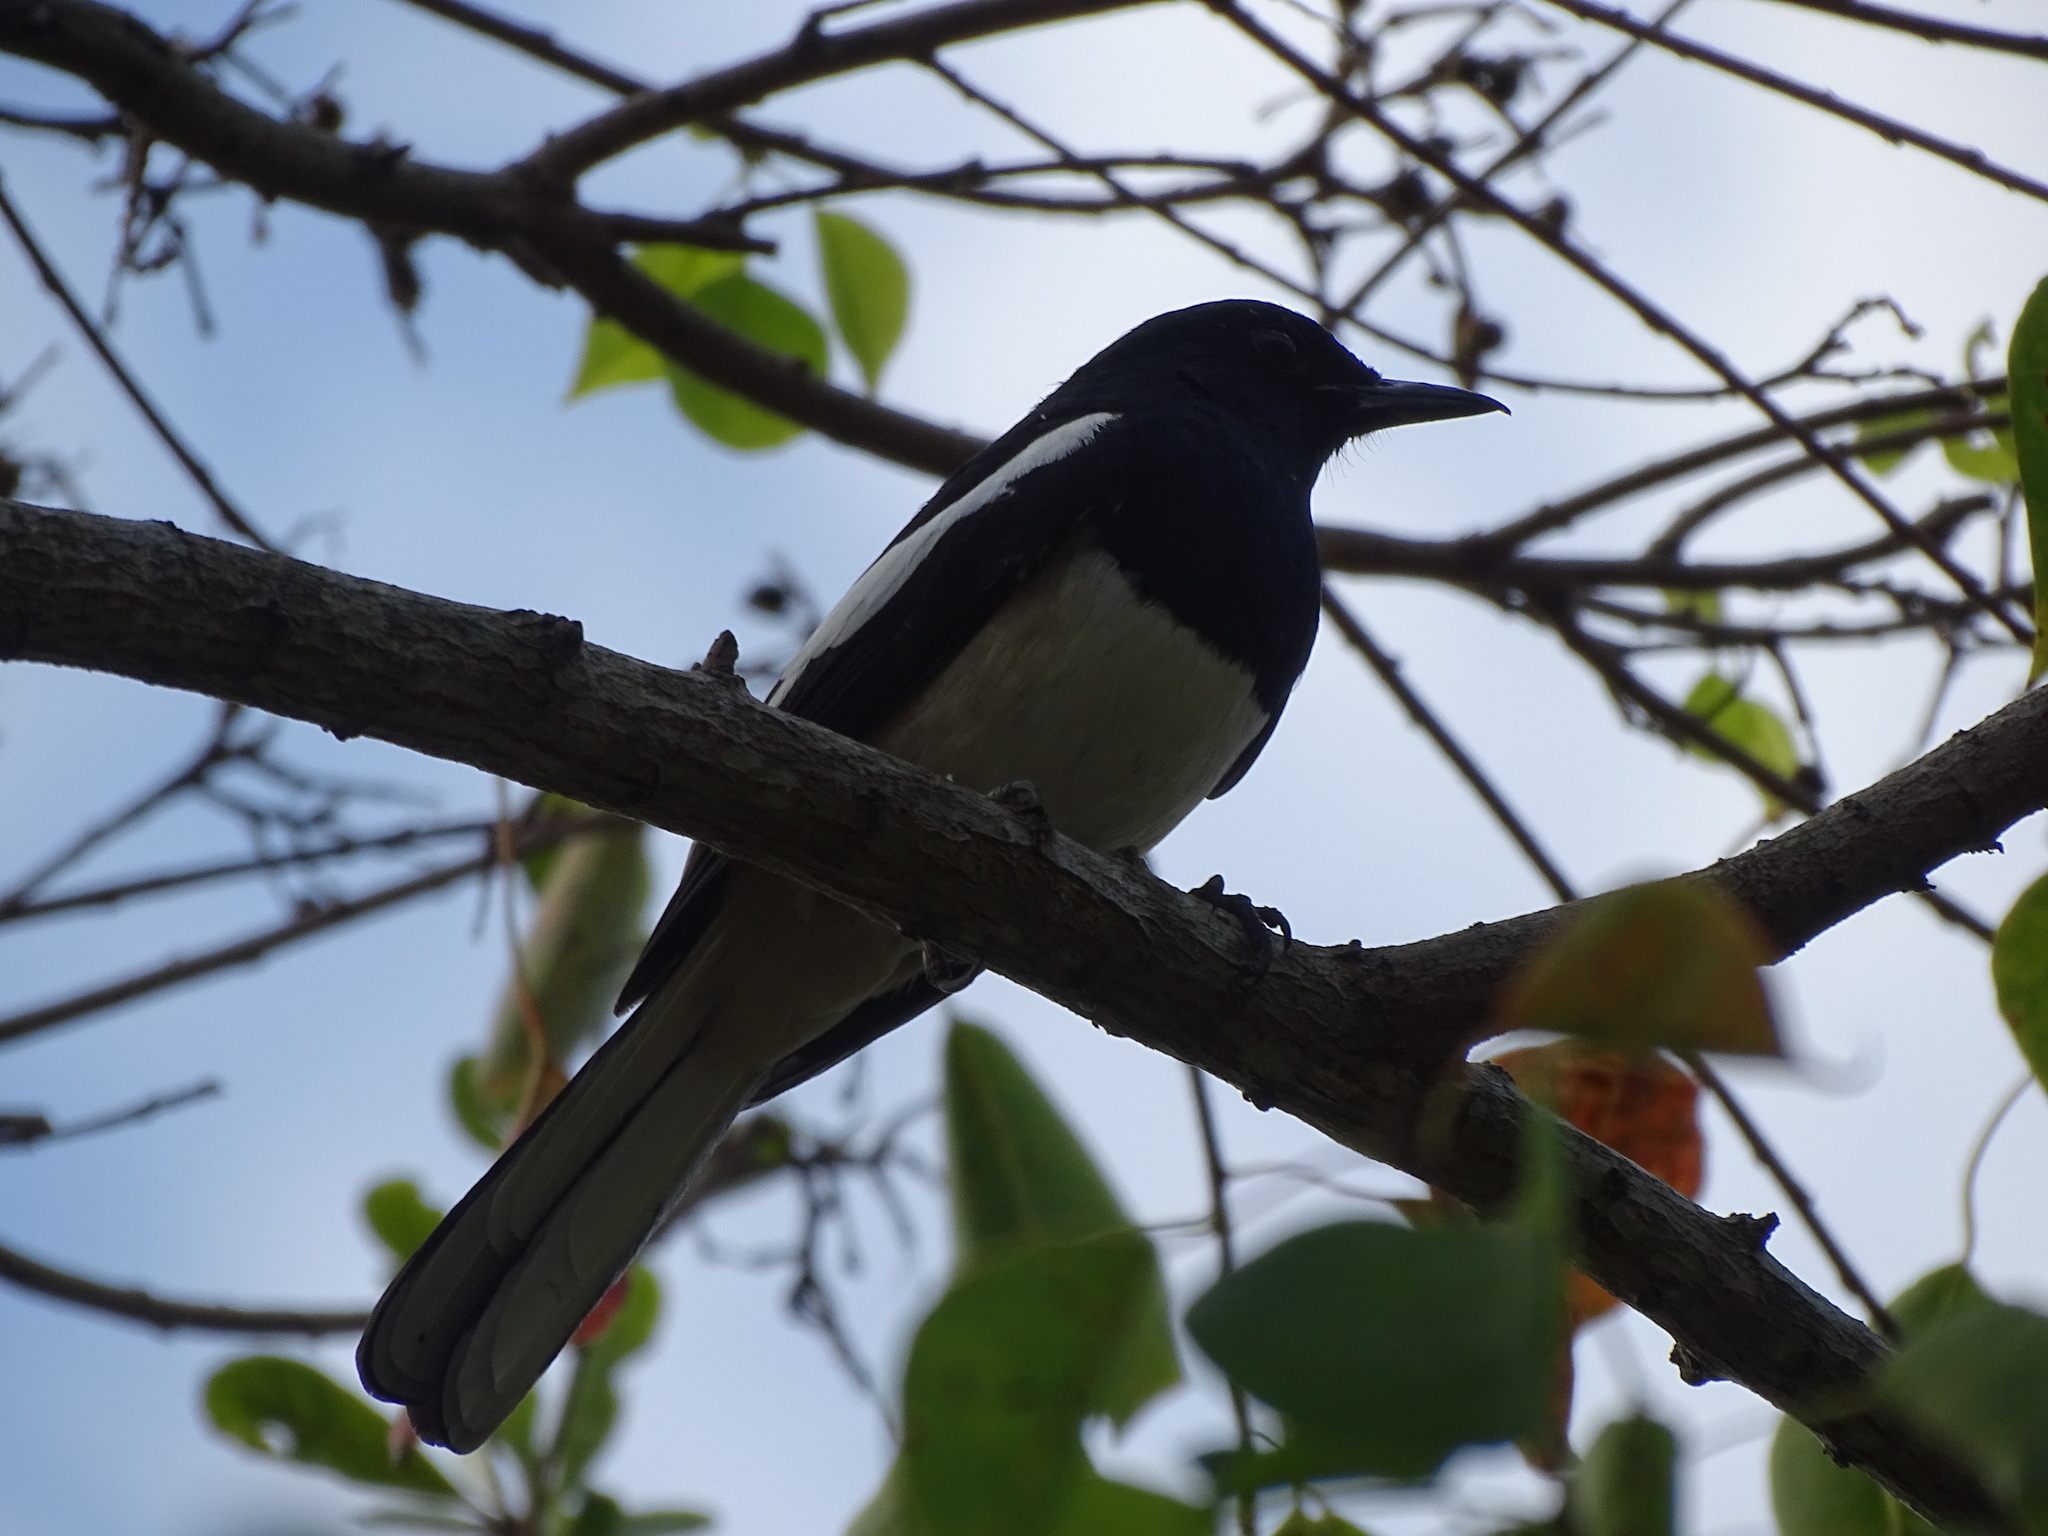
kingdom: Animalia
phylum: Chordata
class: Aves
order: Passeriformes
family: Muscicapidae
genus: Copsychus
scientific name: Copsychus saularis
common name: Oriental magpie-robin
